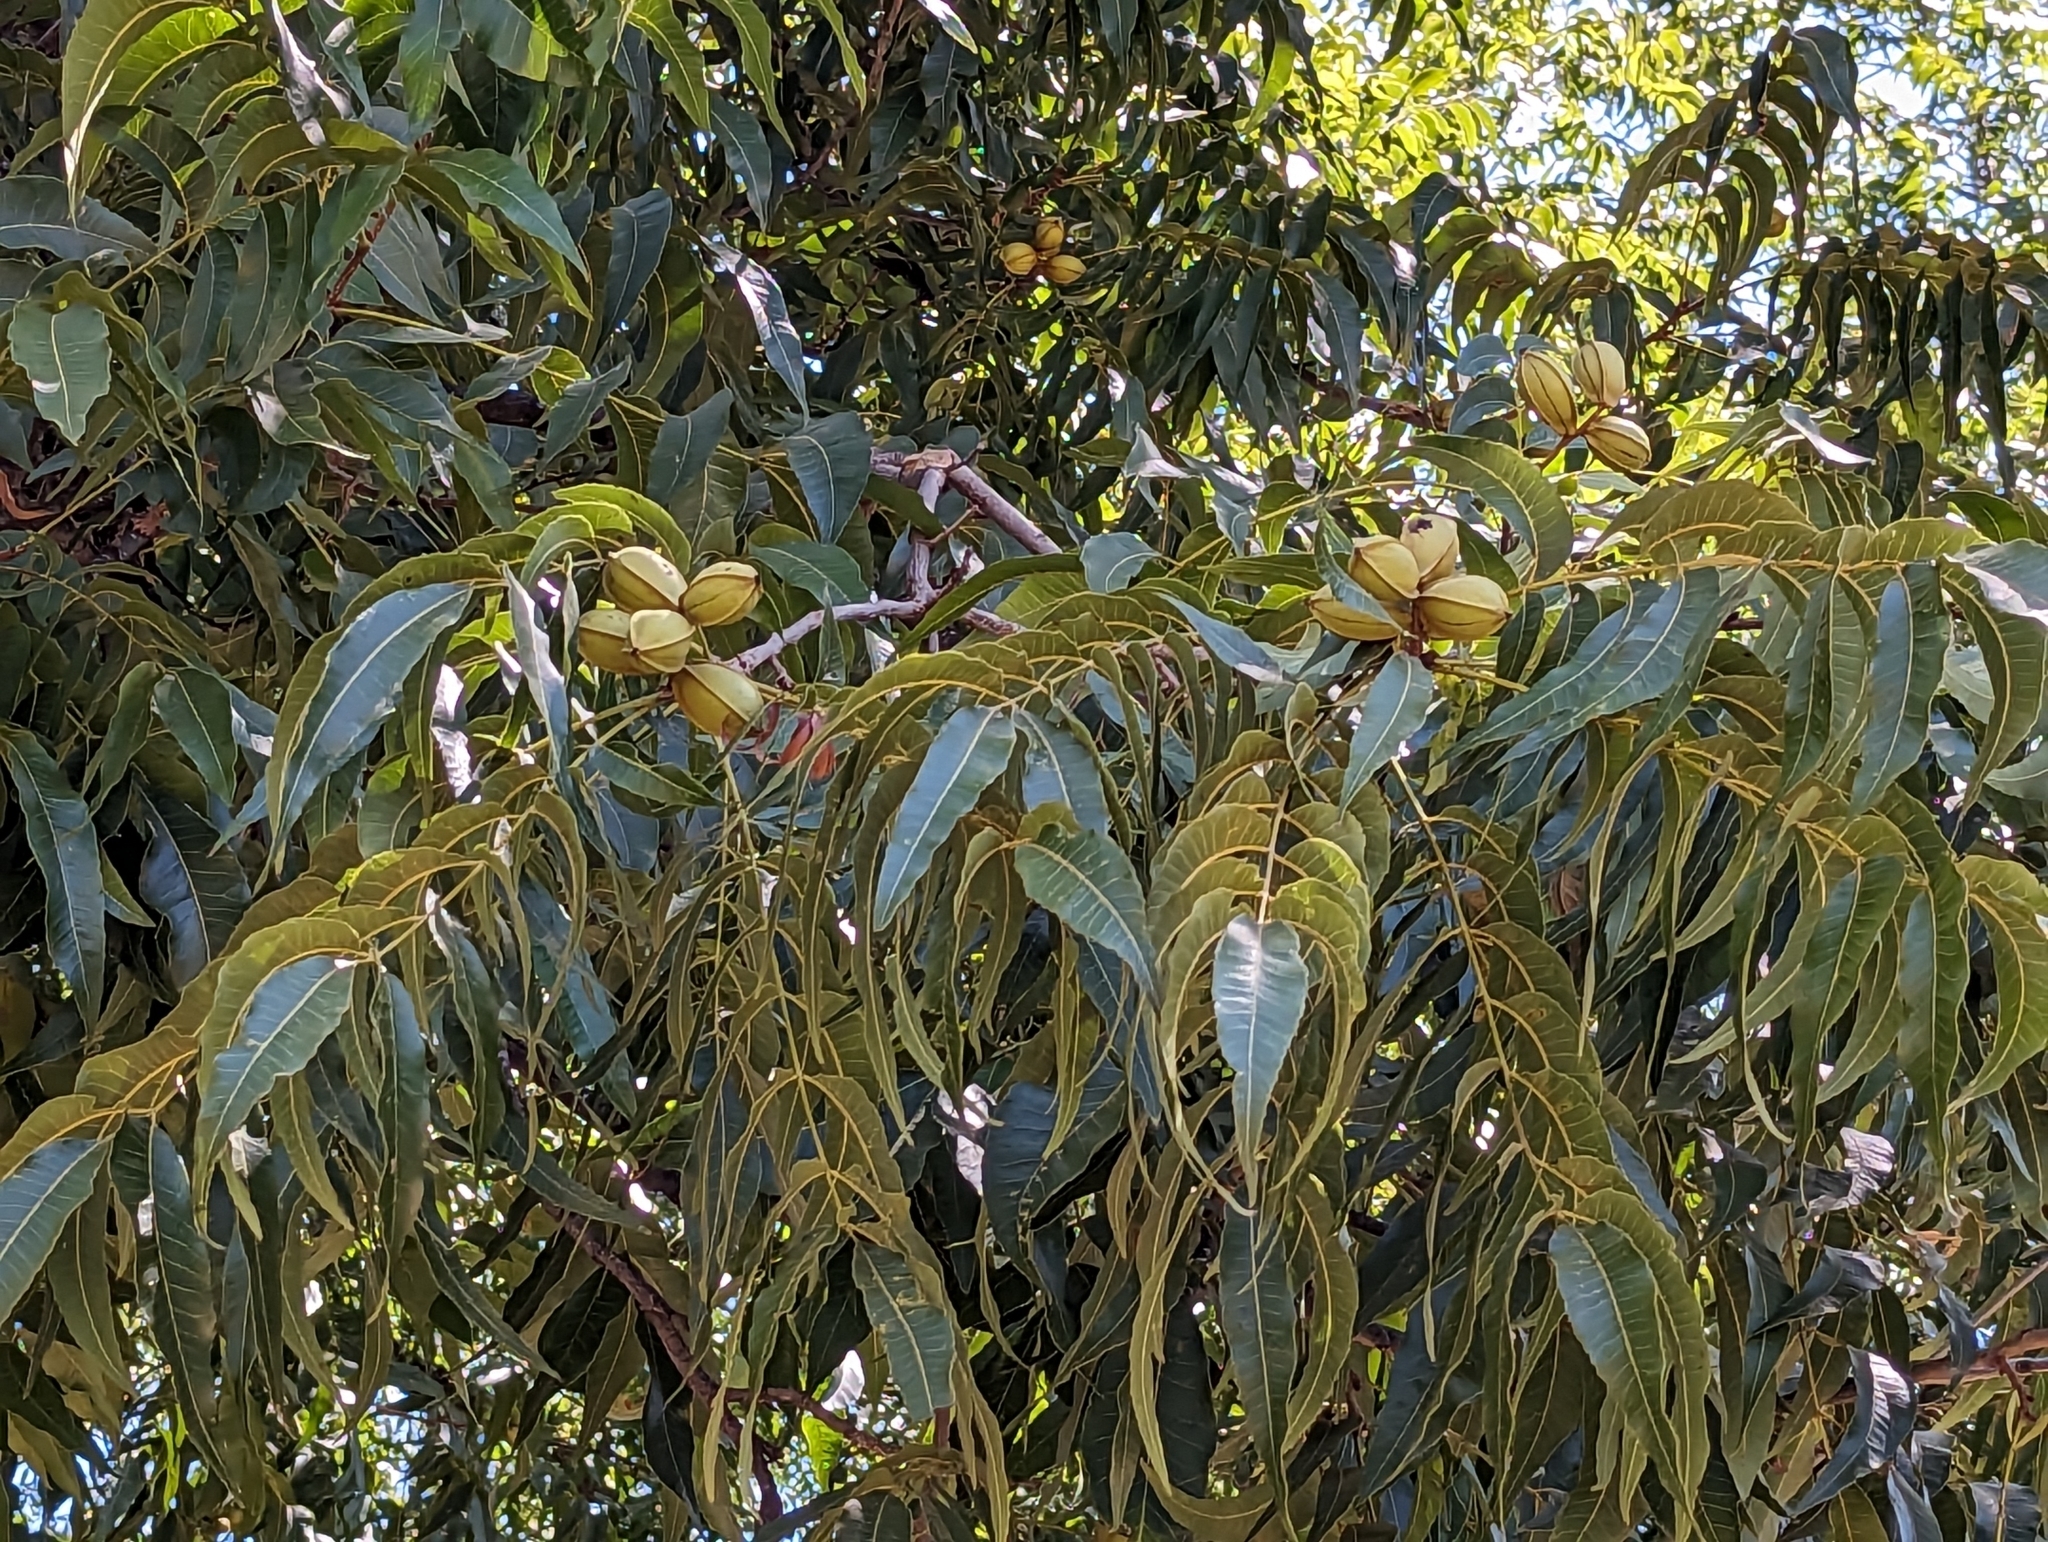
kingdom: Plantae
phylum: Tracheophyta
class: Magnoliopsida
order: Fagales
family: Juglandaceae
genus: Carya
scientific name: Carya illinoinensis
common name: Pecan
